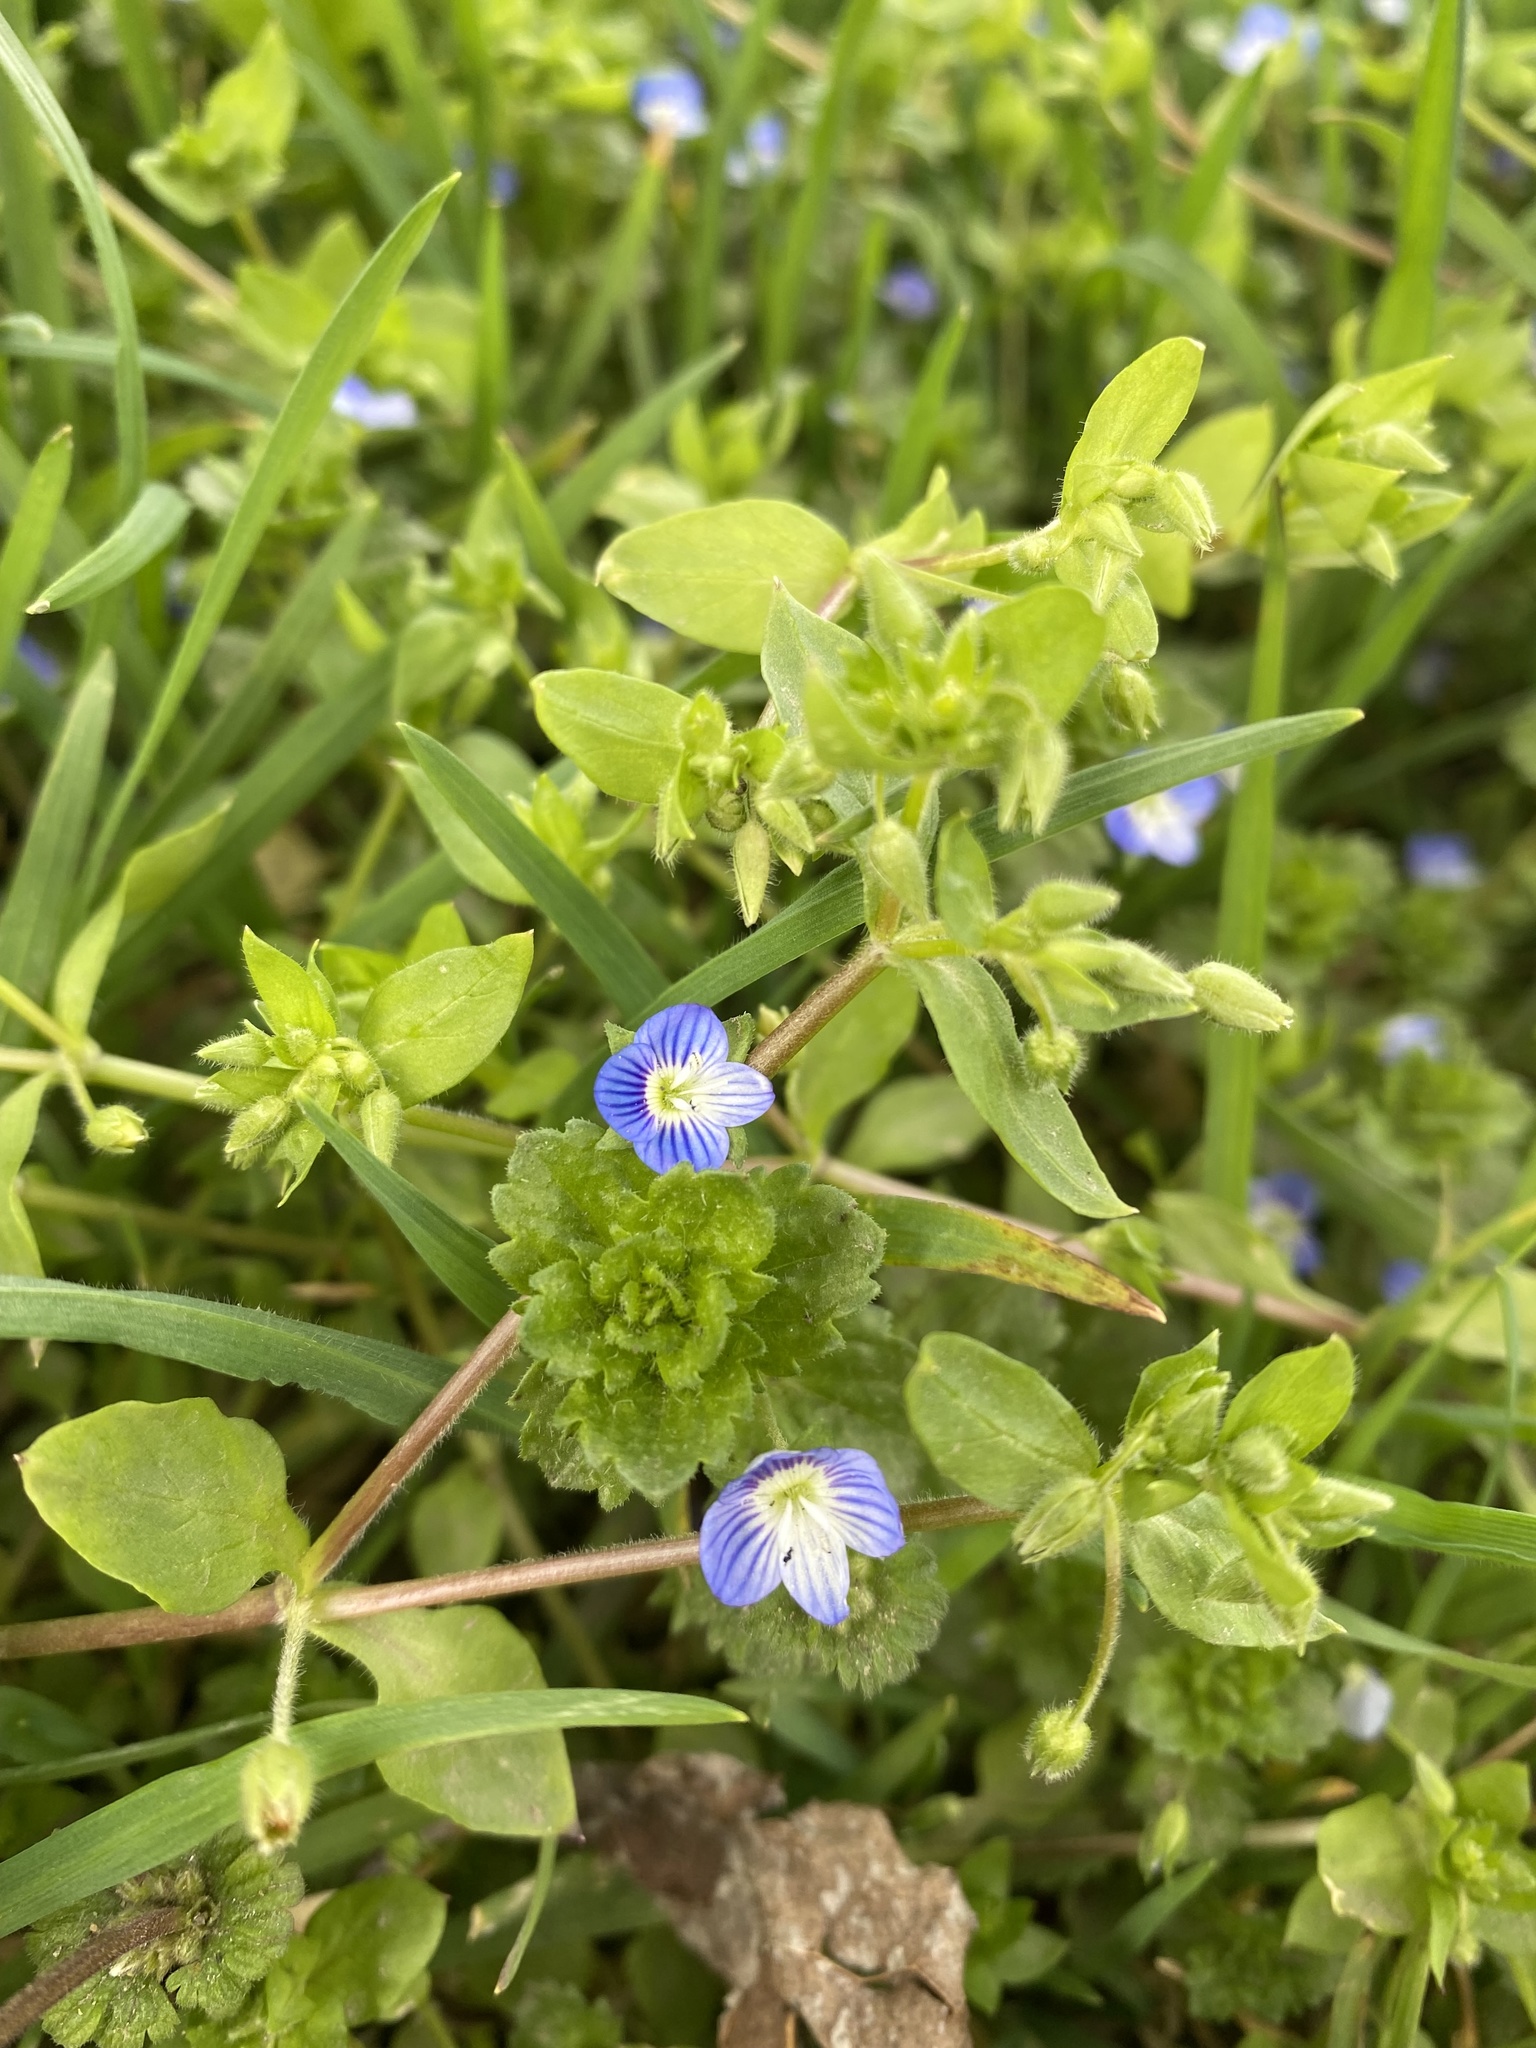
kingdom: Plantae
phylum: Tracheophyta
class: Magnoliopsida
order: Lamiales
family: Plantaginaceae
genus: Veronica
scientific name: Veronica polita
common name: Grey field-speedwell
